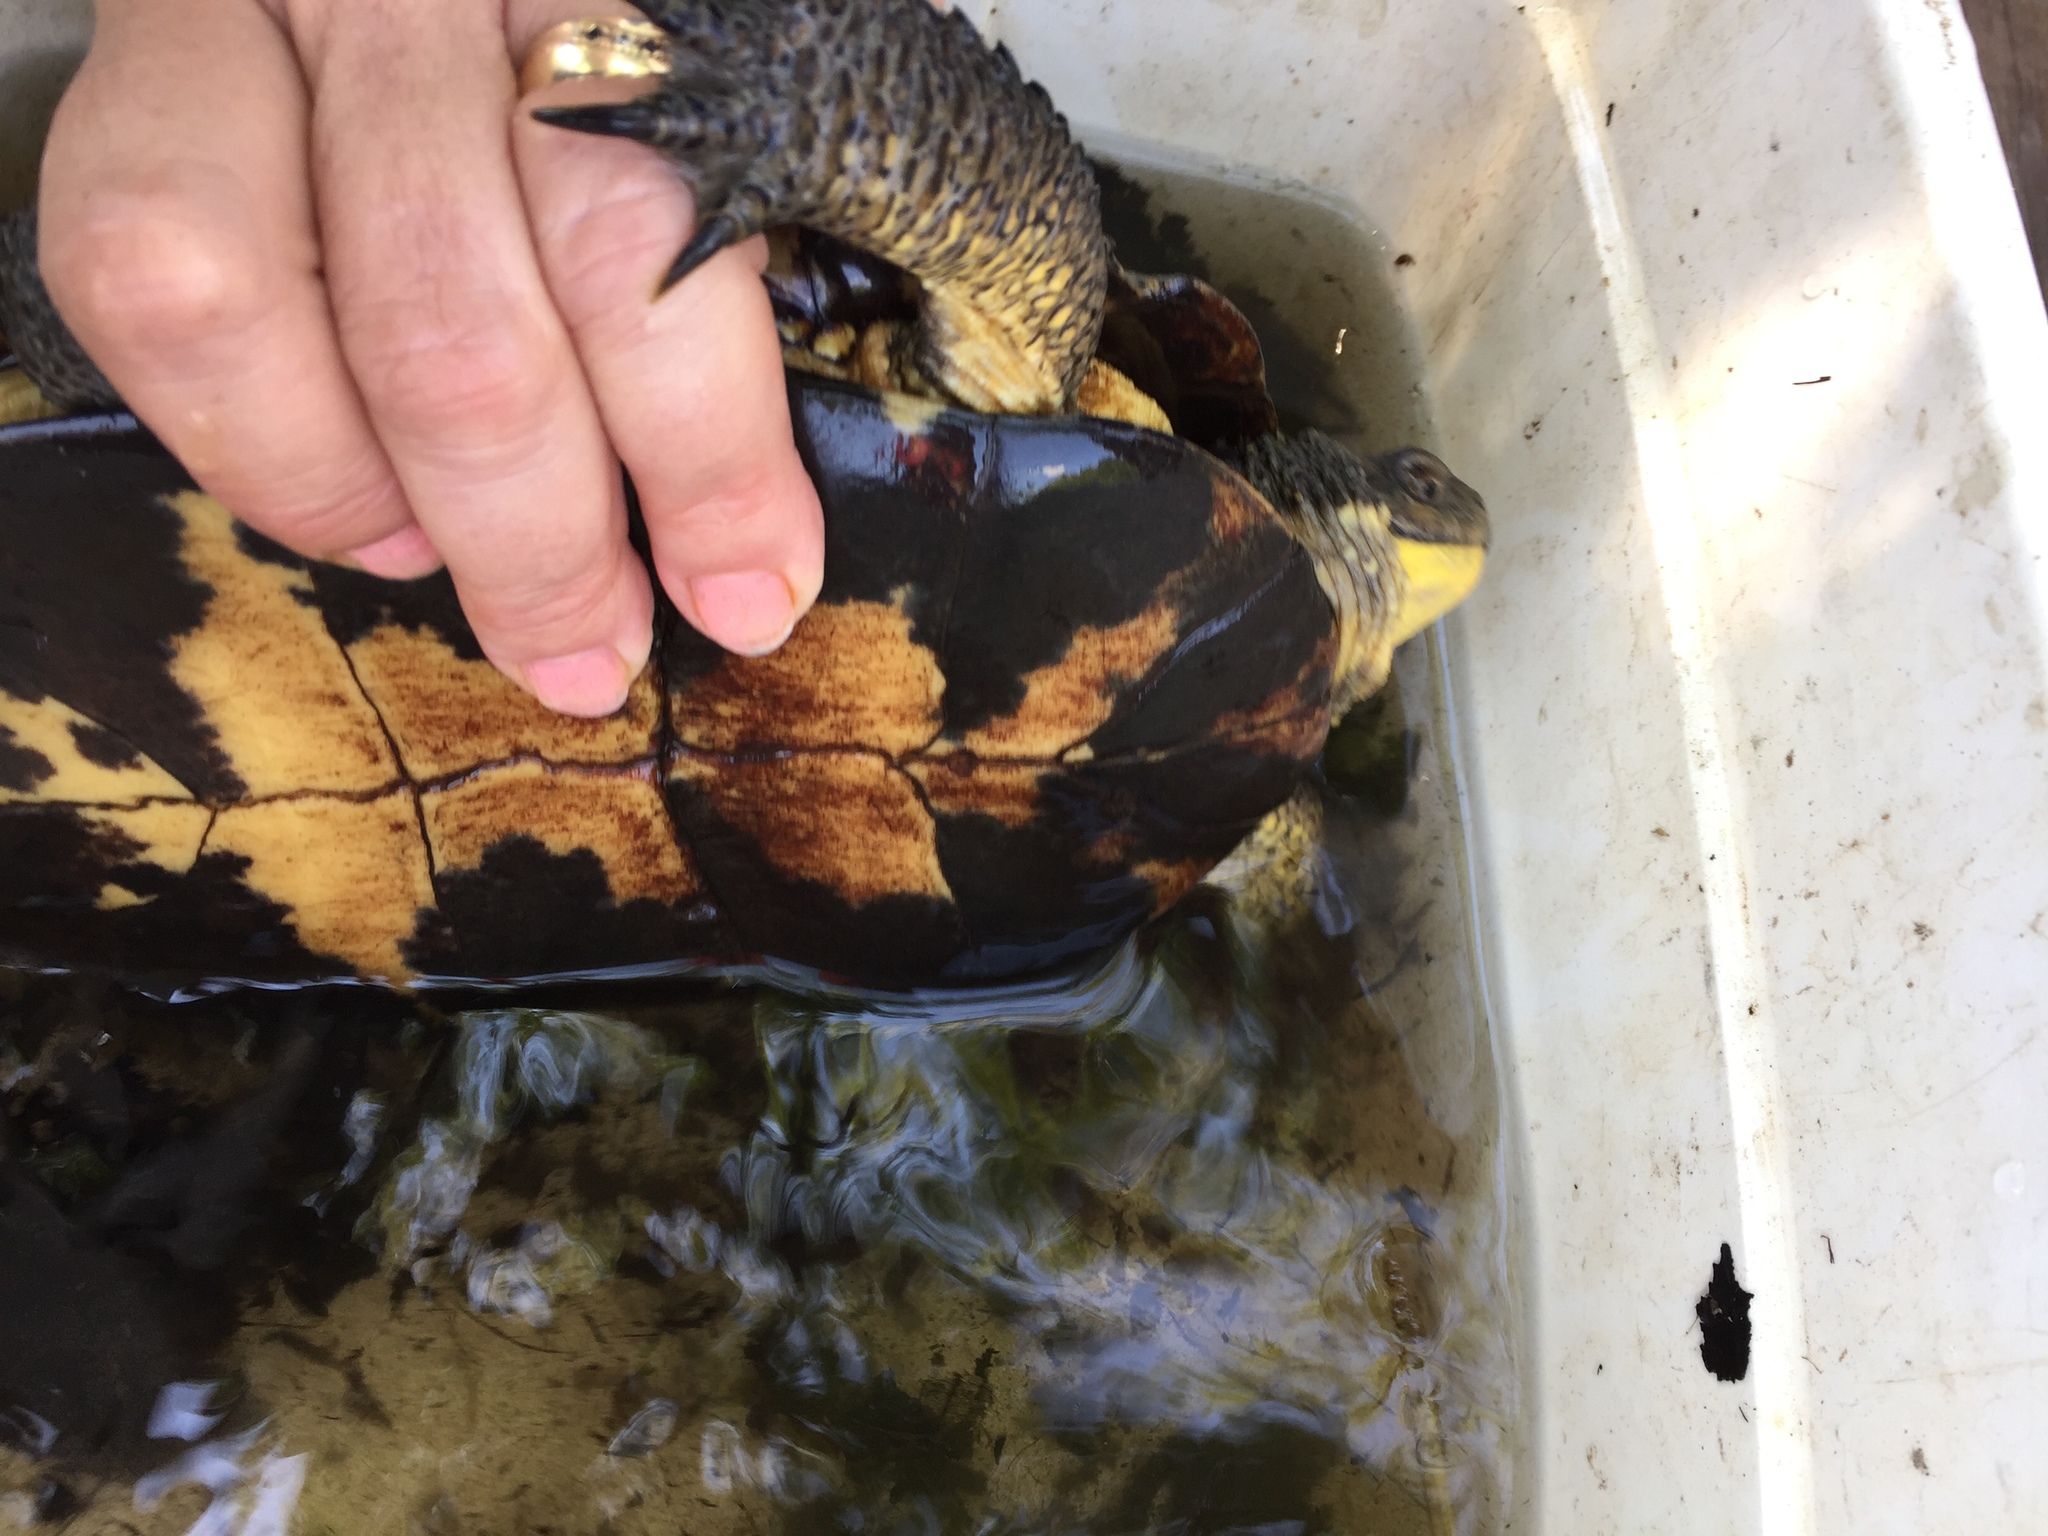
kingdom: Animalia
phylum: Chordata
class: Testudines
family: Emydidae
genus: Emys
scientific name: Emys blandingii
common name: Blanding's turtle
